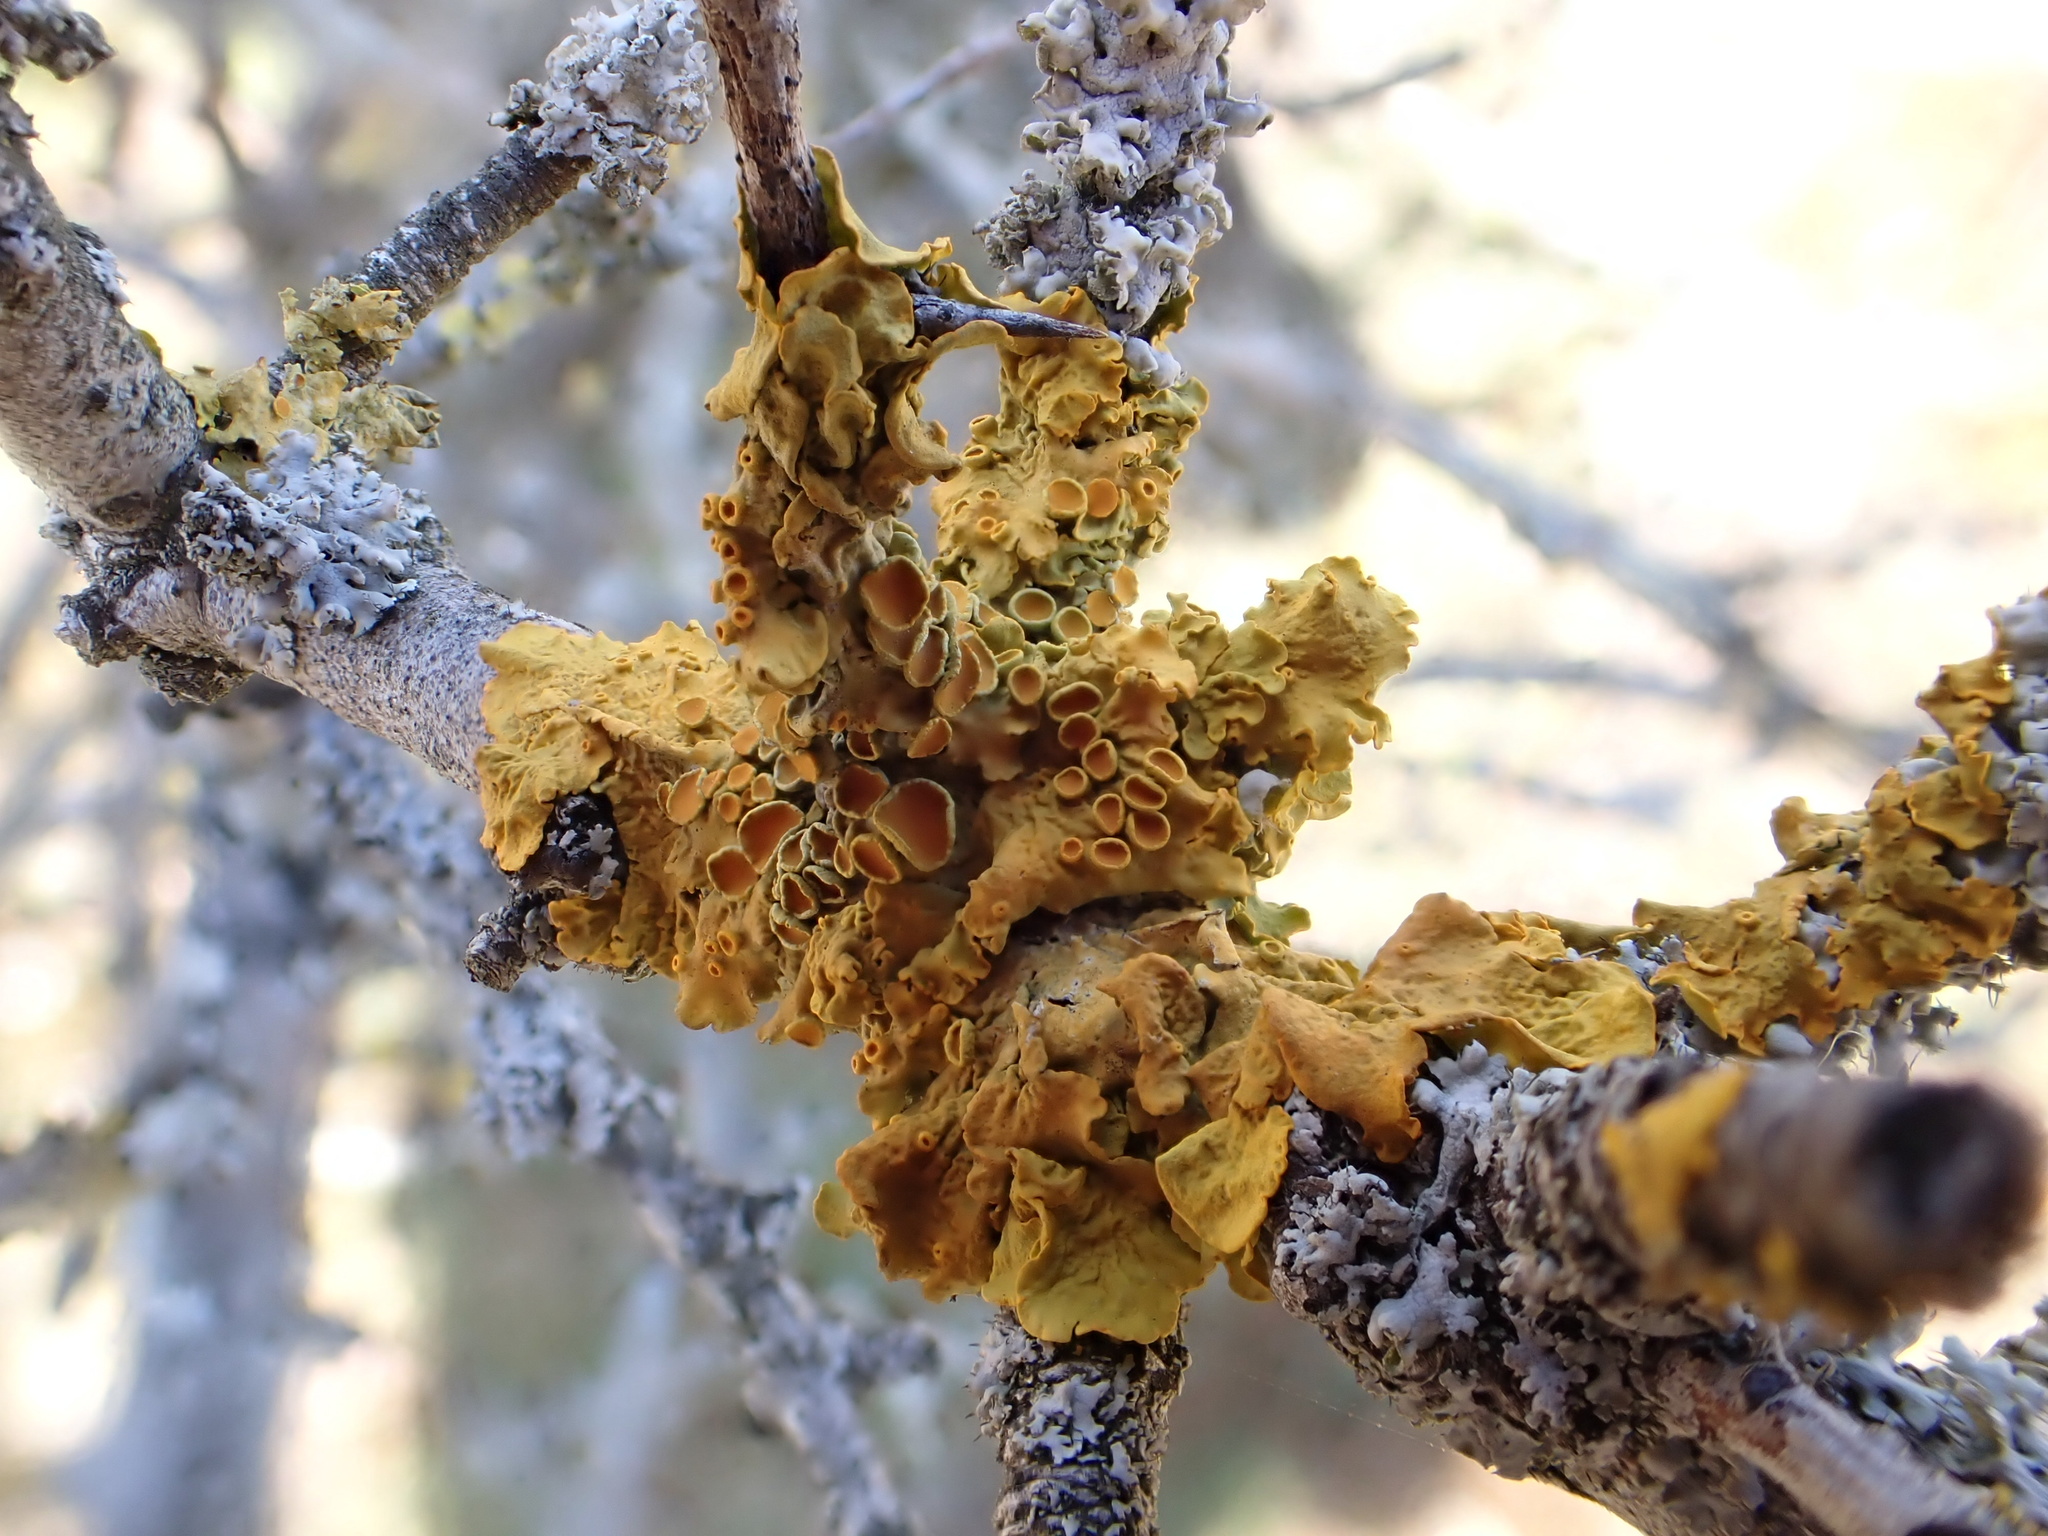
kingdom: Fungi
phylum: Ascomycota
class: Lecanoromycetes
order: Teloschistales
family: Teloschistaceae
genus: Xanthoria
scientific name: Xanthoria parietina
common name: Common orange lichen
